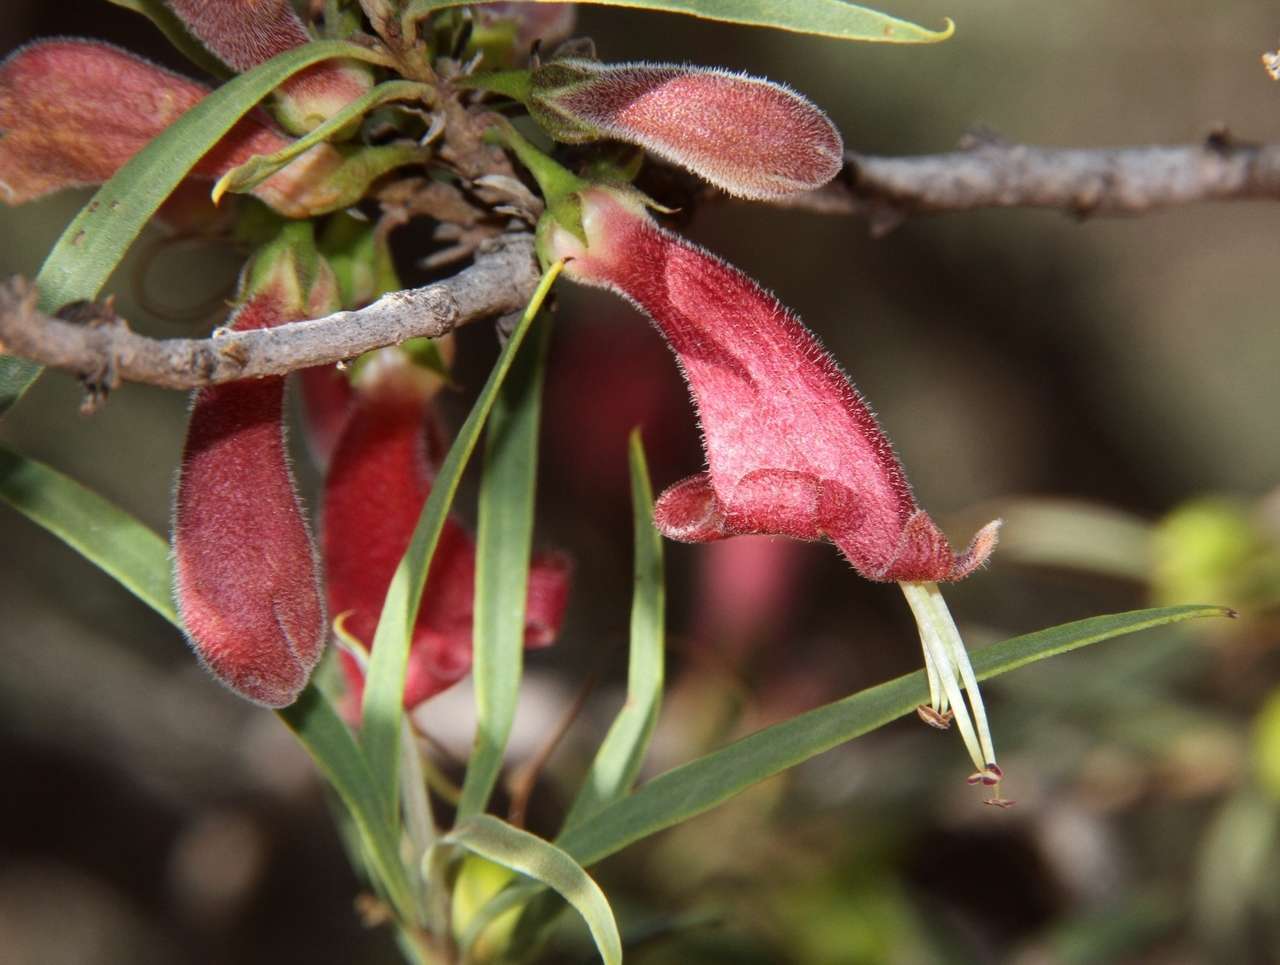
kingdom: Plantae
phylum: Tracheophyta
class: Magnoliopsida
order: Lamiales
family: Scrophulariaceae
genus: Eremophila
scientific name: Eremophila longifolia
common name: Longleaf emubush
